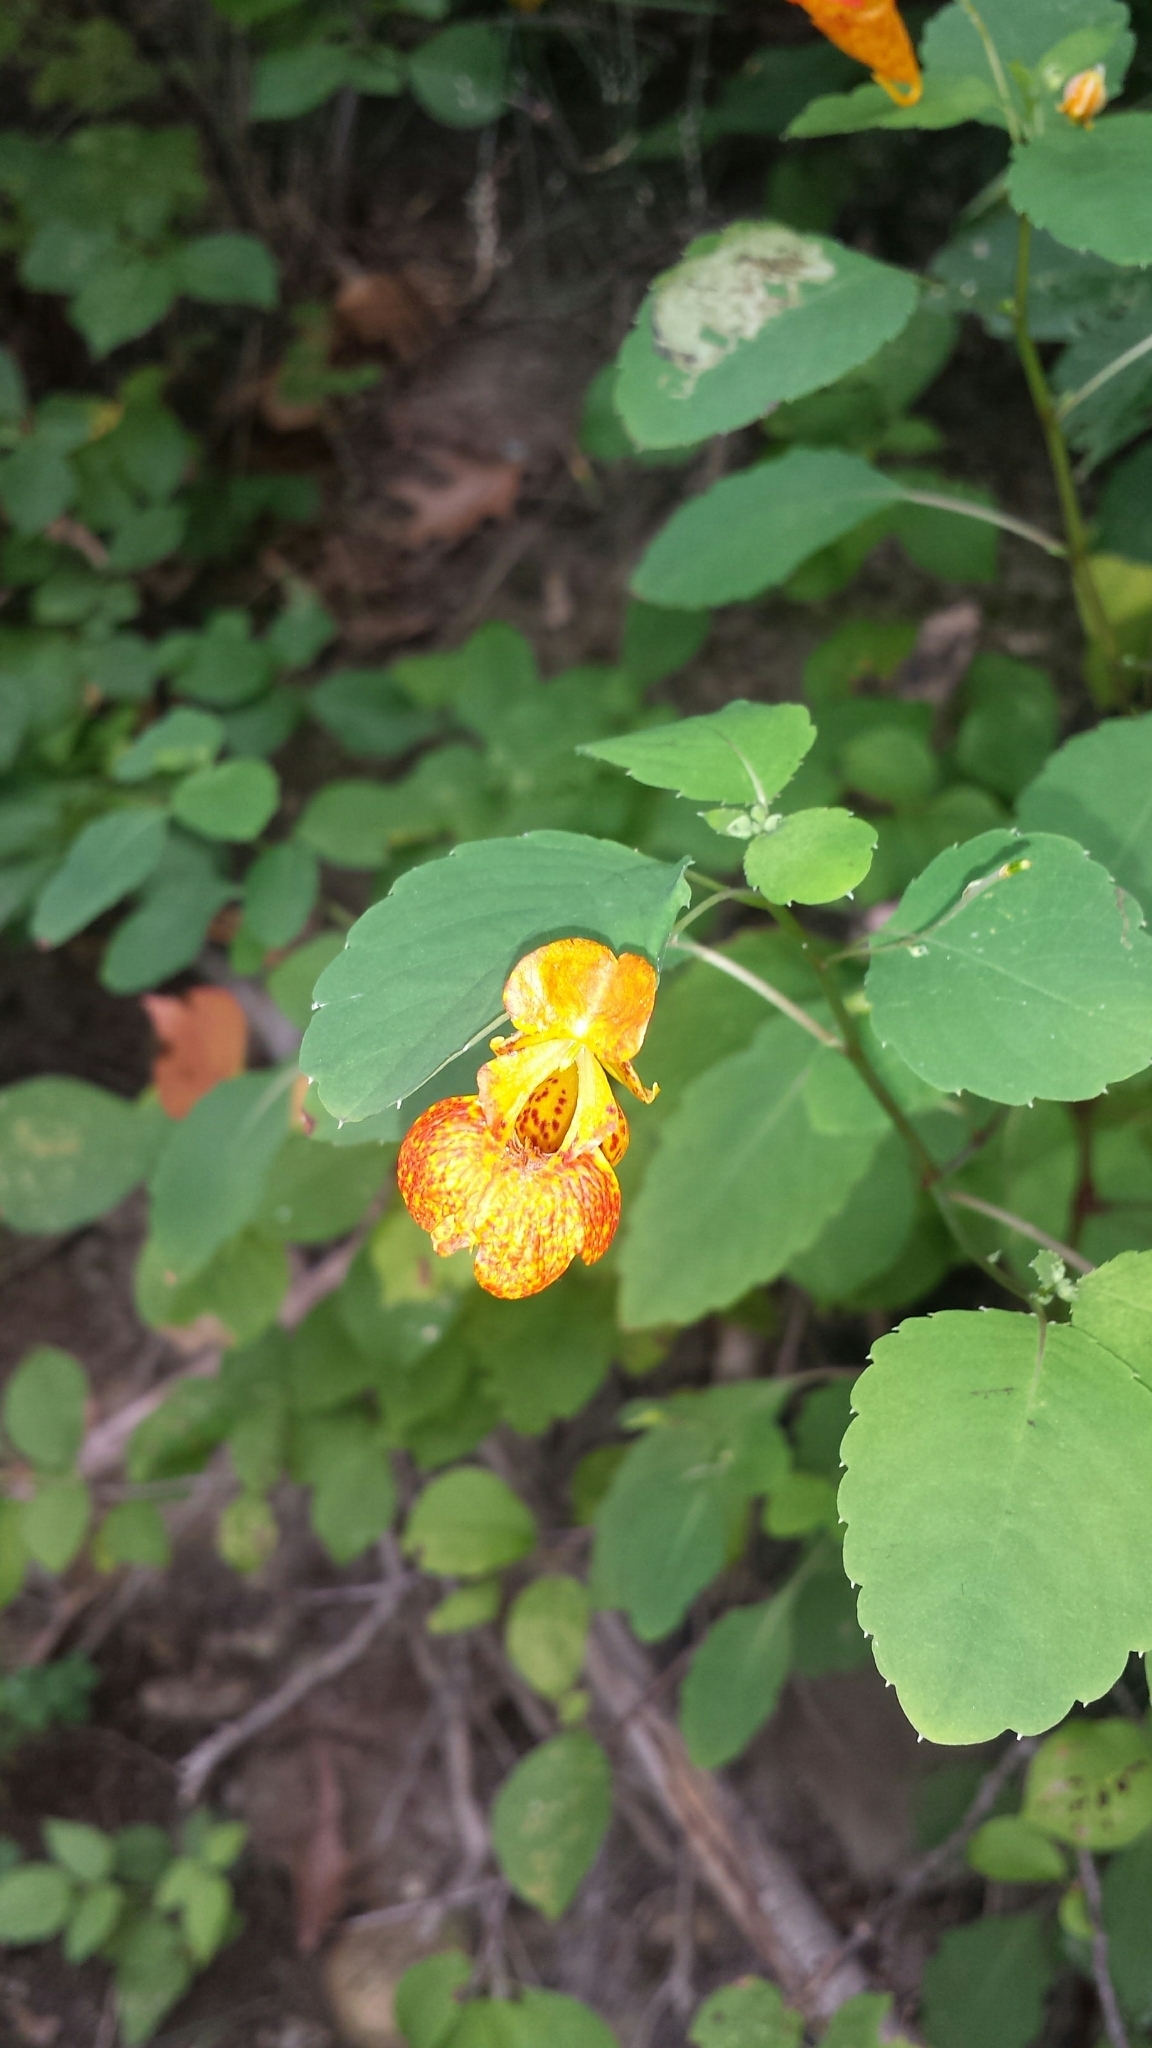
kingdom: Plantae
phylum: Tracheophyta
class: Magnoliopsida
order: Ericales
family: Balsaminaceae
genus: Impatiens
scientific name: Impatiens capensis
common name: Orange balsam
